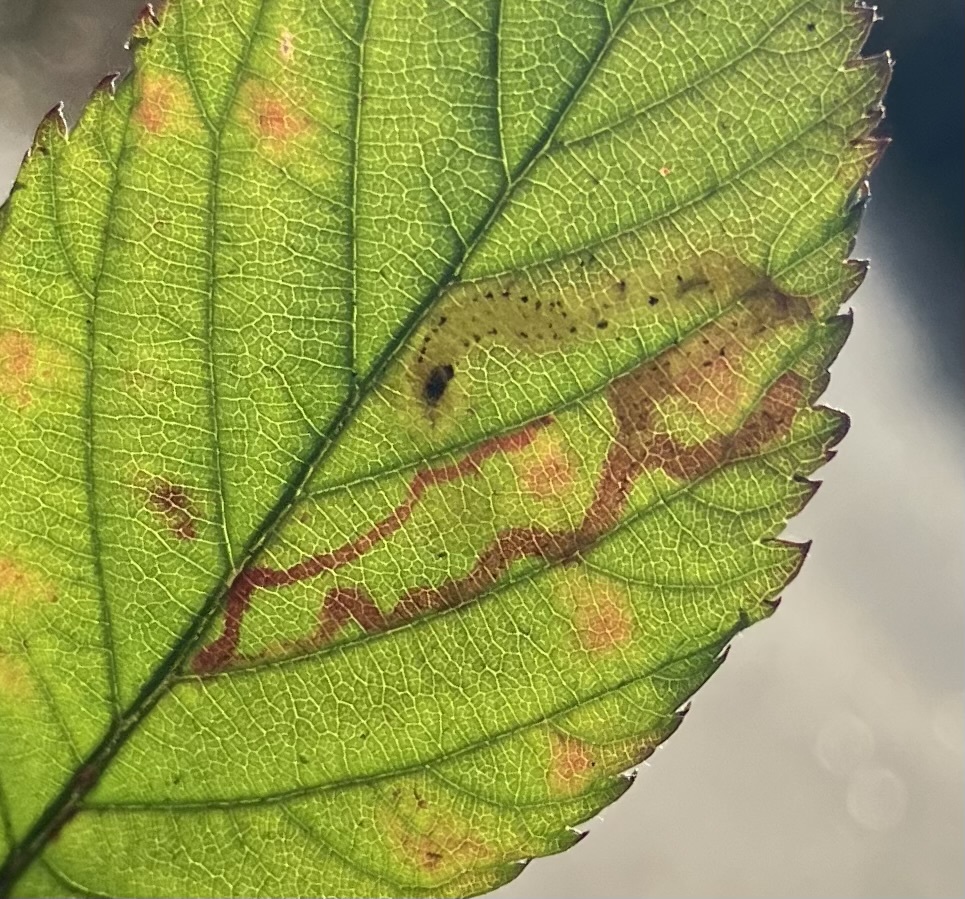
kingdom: Animalia
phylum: Arthropoda
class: Insecta
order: Diptera
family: Agromyzidae
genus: Agromyza
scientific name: Agromyza vockerothi
